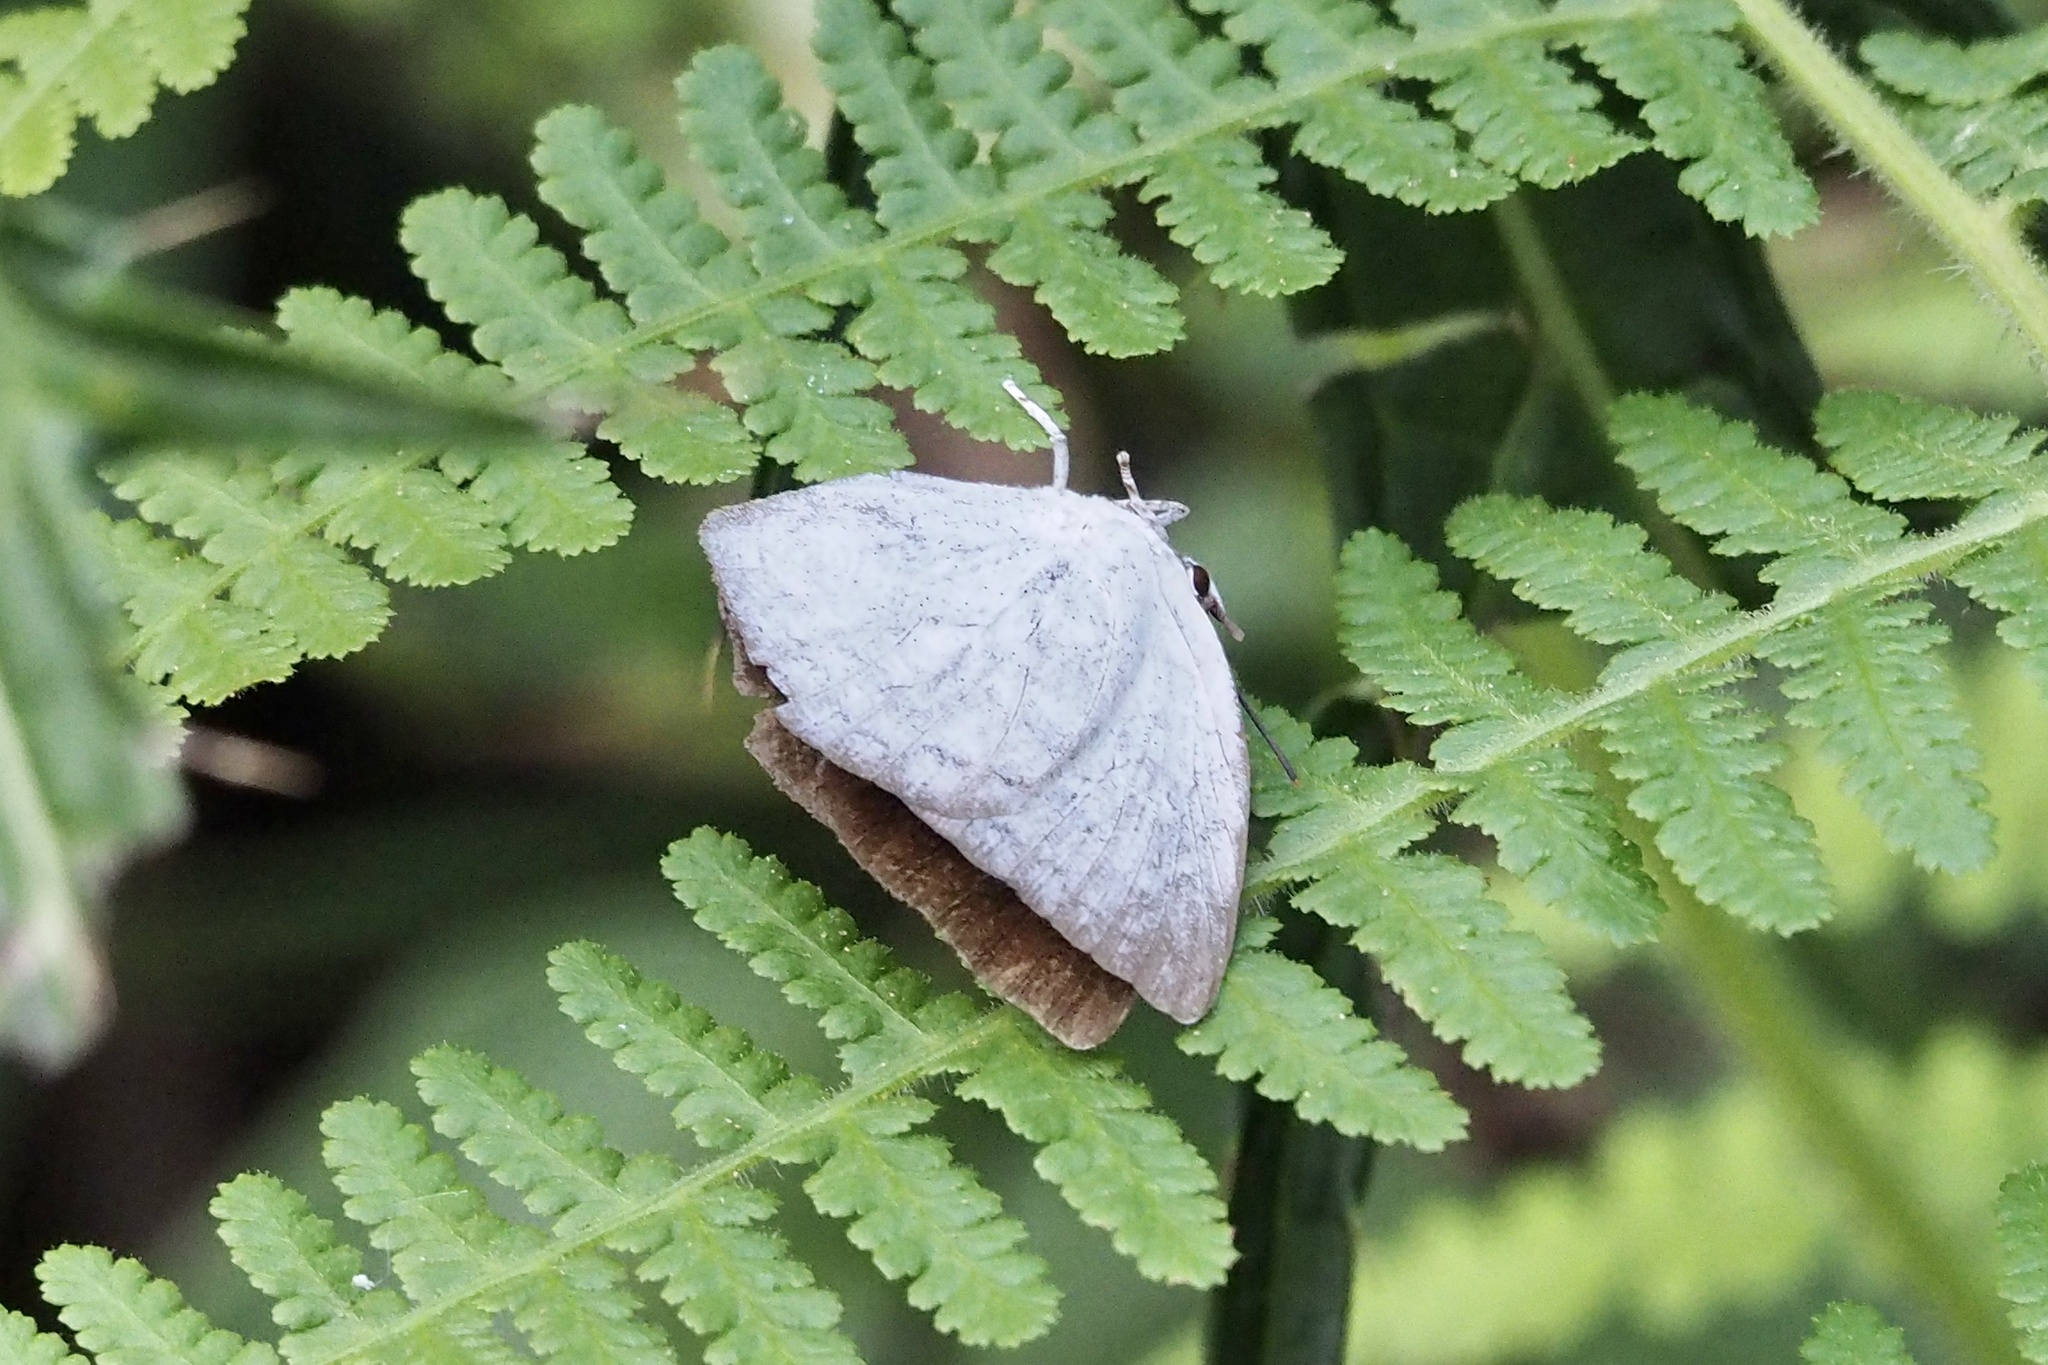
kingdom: Animalia
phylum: Arthropoda
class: Insecta
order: Lepidoptera
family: Lycaenidae
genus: Curetis
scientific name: Curetis acuta
